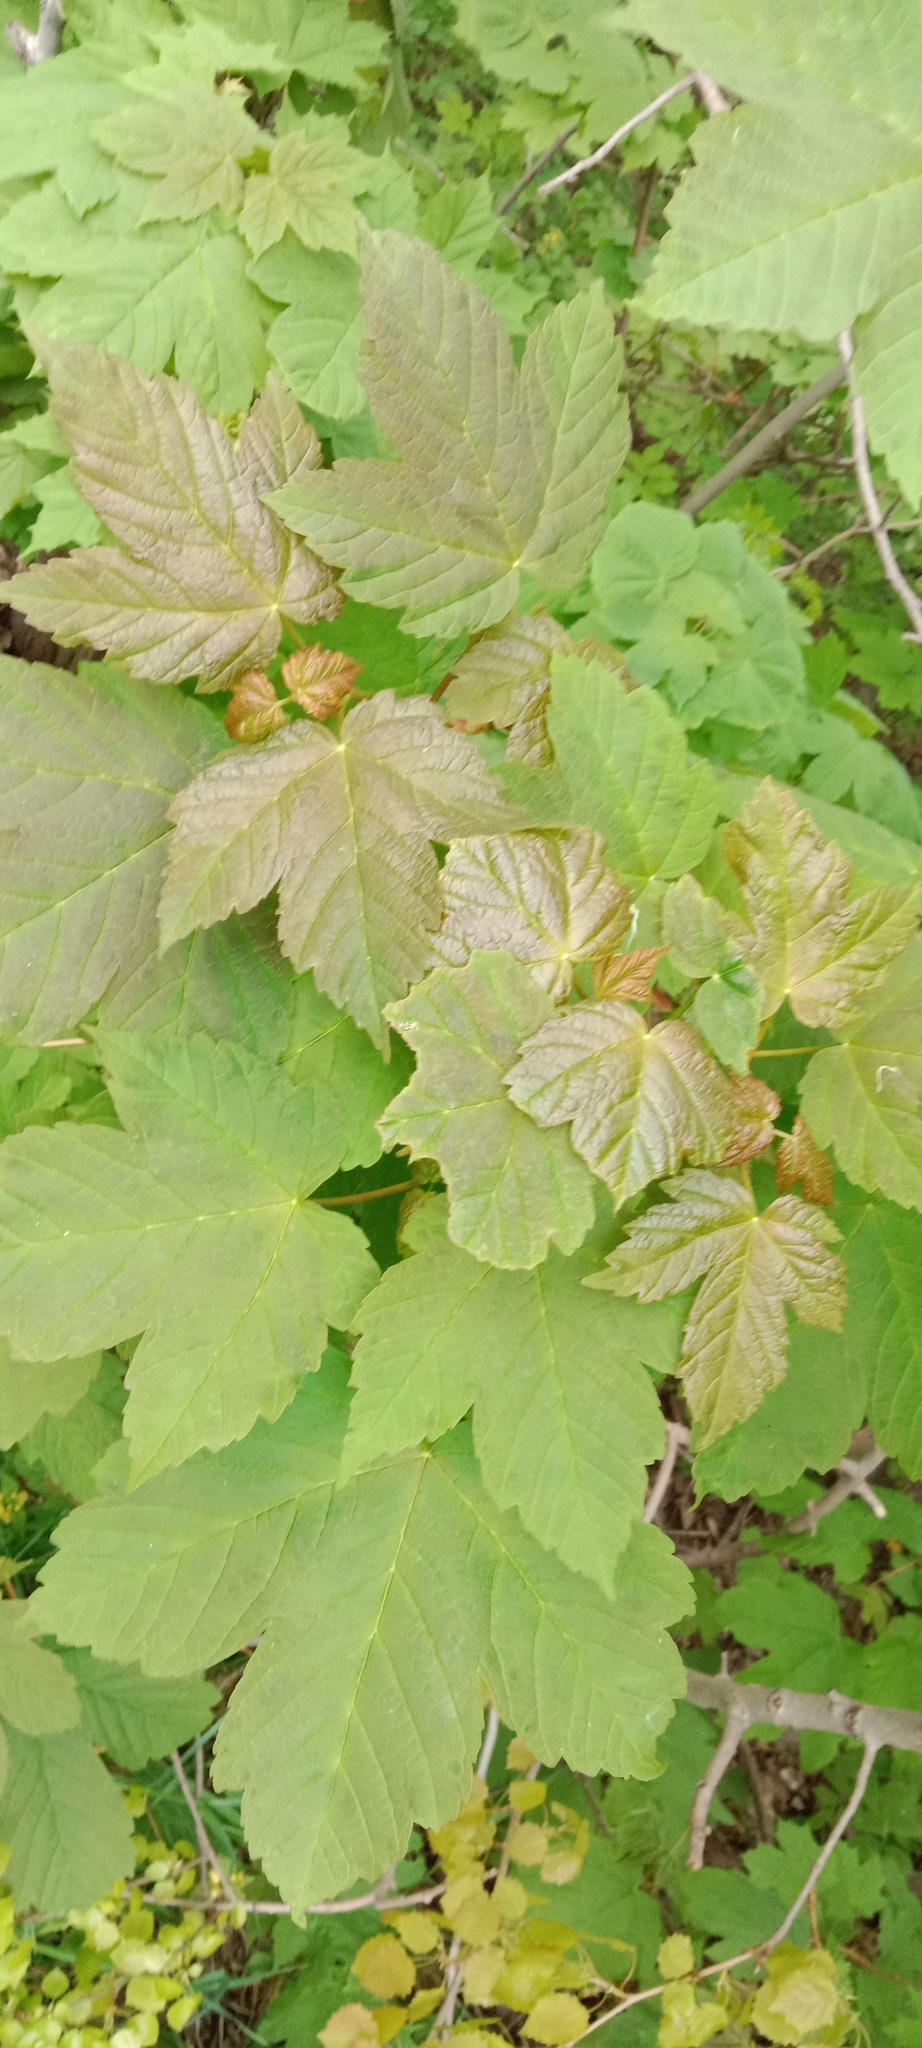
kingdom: Plantae
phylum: Tracheophyta
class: Magnoliopsida
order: Sapindales
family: Sapindaceae
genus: Acer
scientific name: Acer pseudoplatanus
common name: Sycamore
